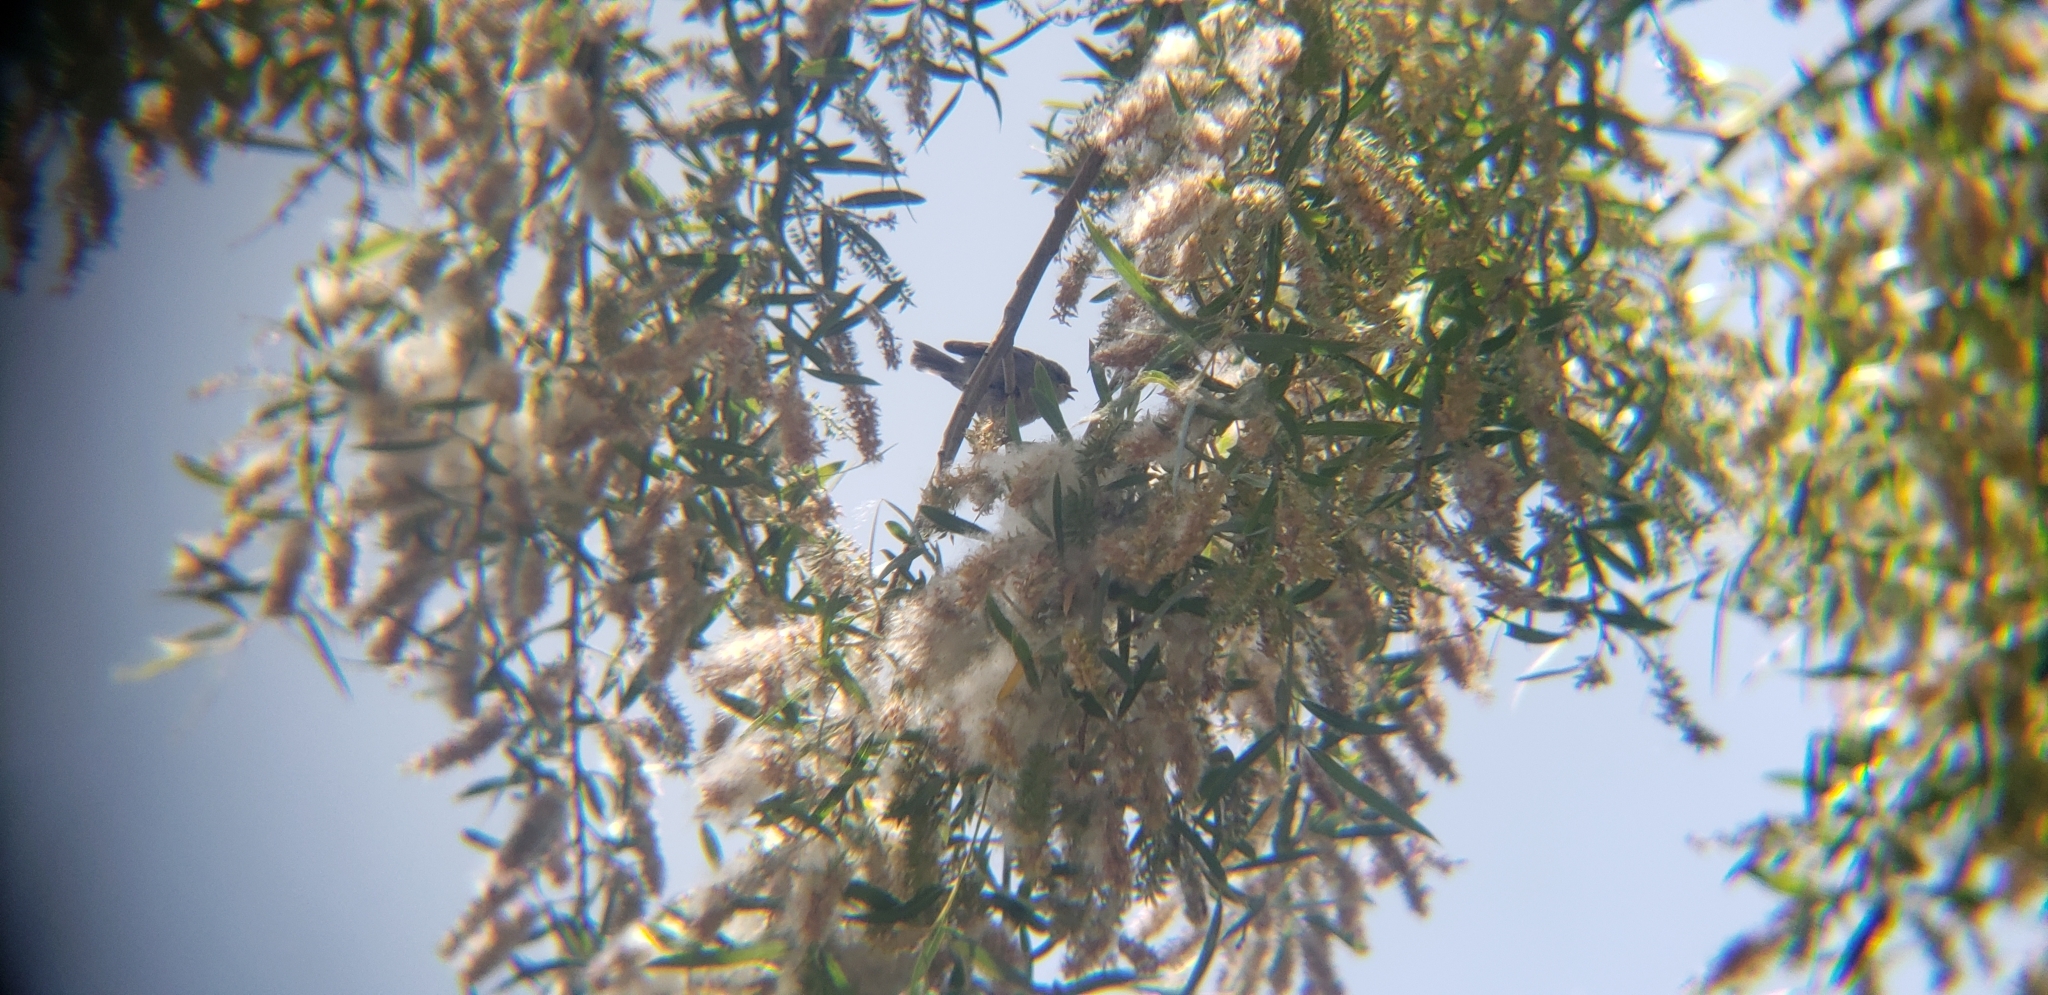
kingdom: Animalia
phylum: Chordata
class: Aves
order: Passeriformes
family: Aegithalidae
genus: Psaltriparus
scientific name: Psaltriparus minimus
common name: American bushtit
